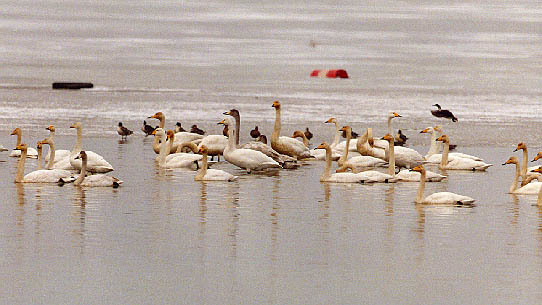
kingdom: Animalia
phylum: Chordata
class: Aves
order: Anseriformes
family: Anatidae
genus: Cygnus
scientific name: Cygnus cygnus
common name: Whooper swan
